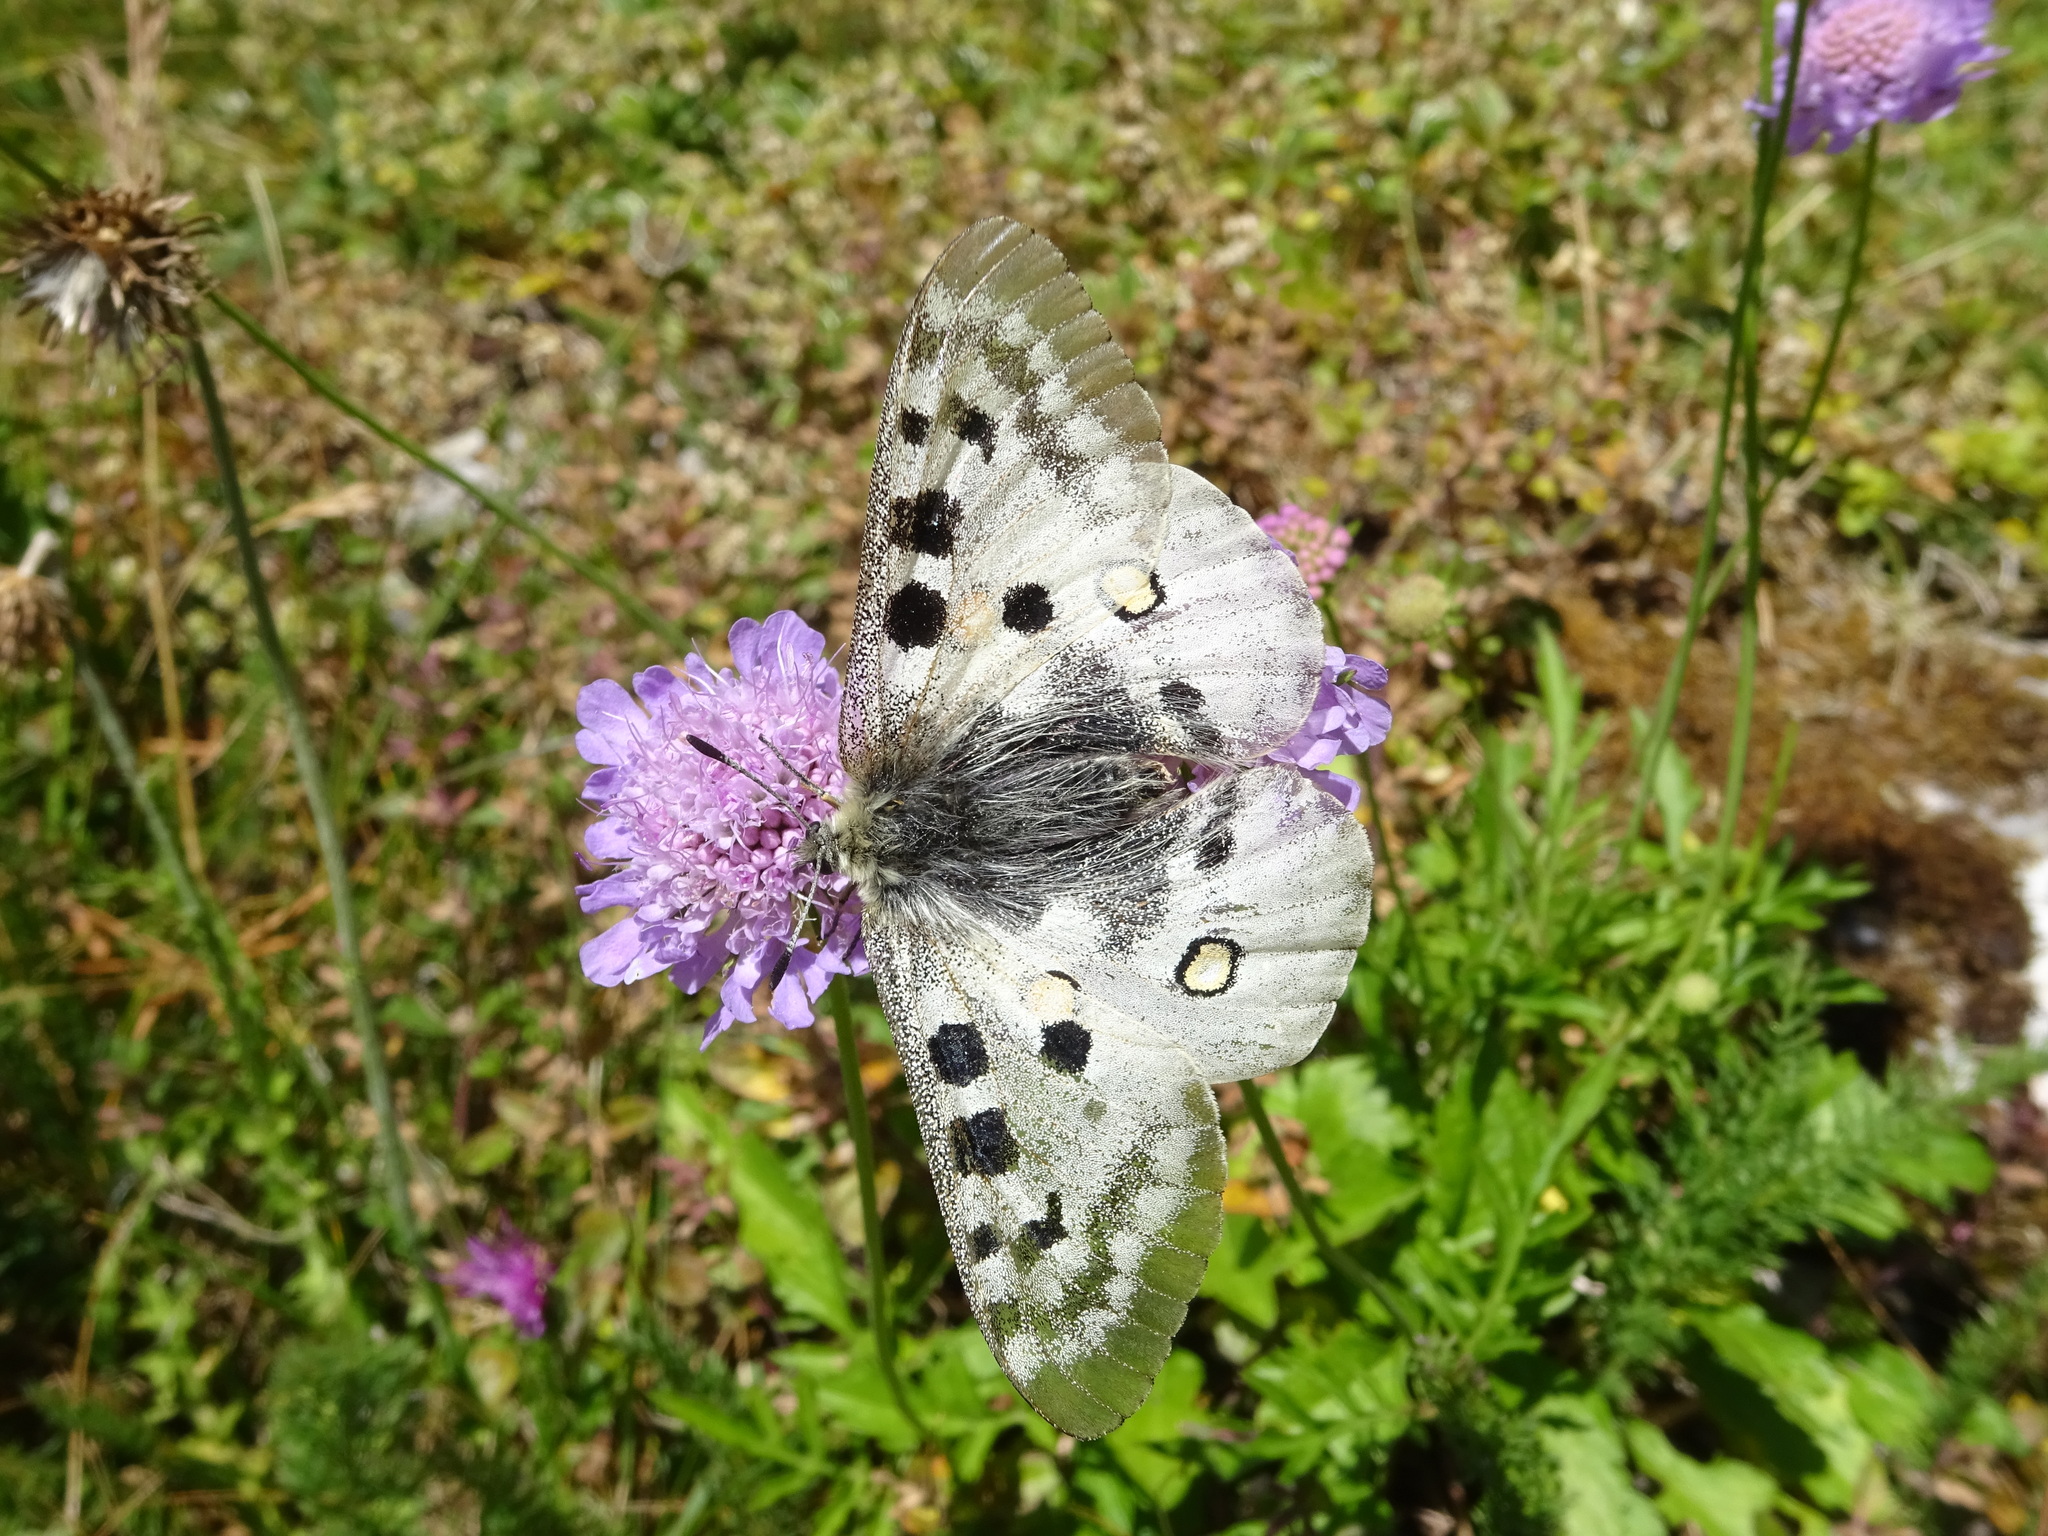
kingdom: Animalia
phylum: Arthropoda
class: Insecta
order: Lepidoptera
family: Papilionidae
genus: Parnassius
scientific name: Parnassius apollo
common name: Apollo
